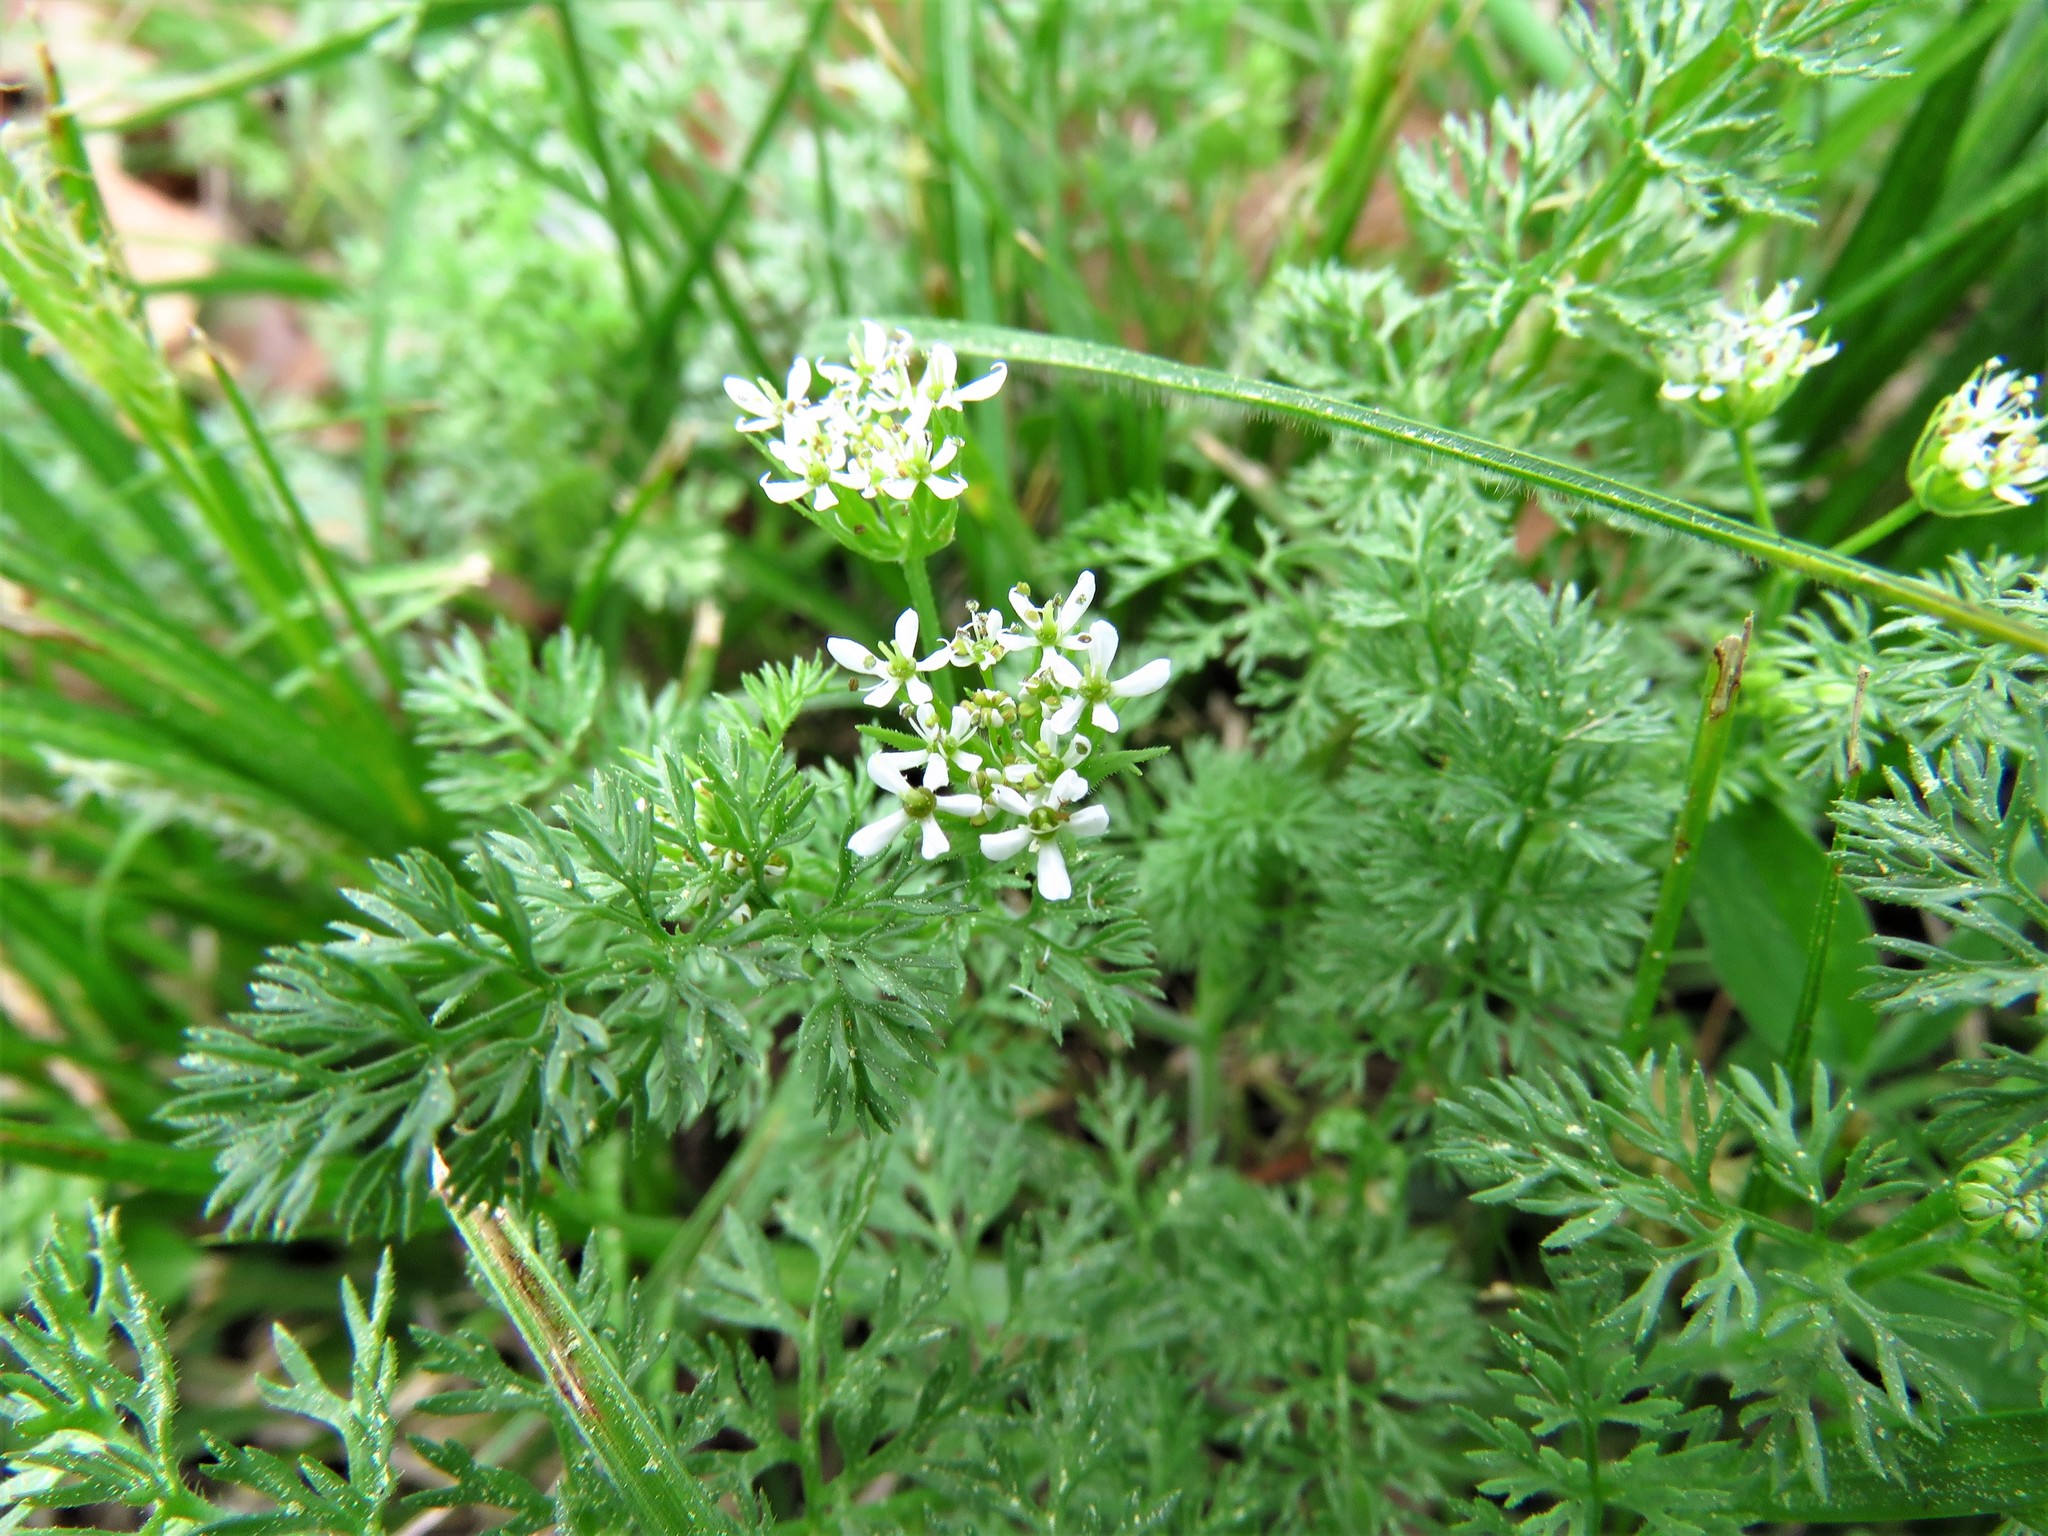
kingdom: Plantae
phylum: Tracheophyta
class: Magnoliopsida
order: Apiales
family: Apiaceae
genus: Scandix
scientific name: Scandix pecten-veneris
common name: Shepherd's-needle
